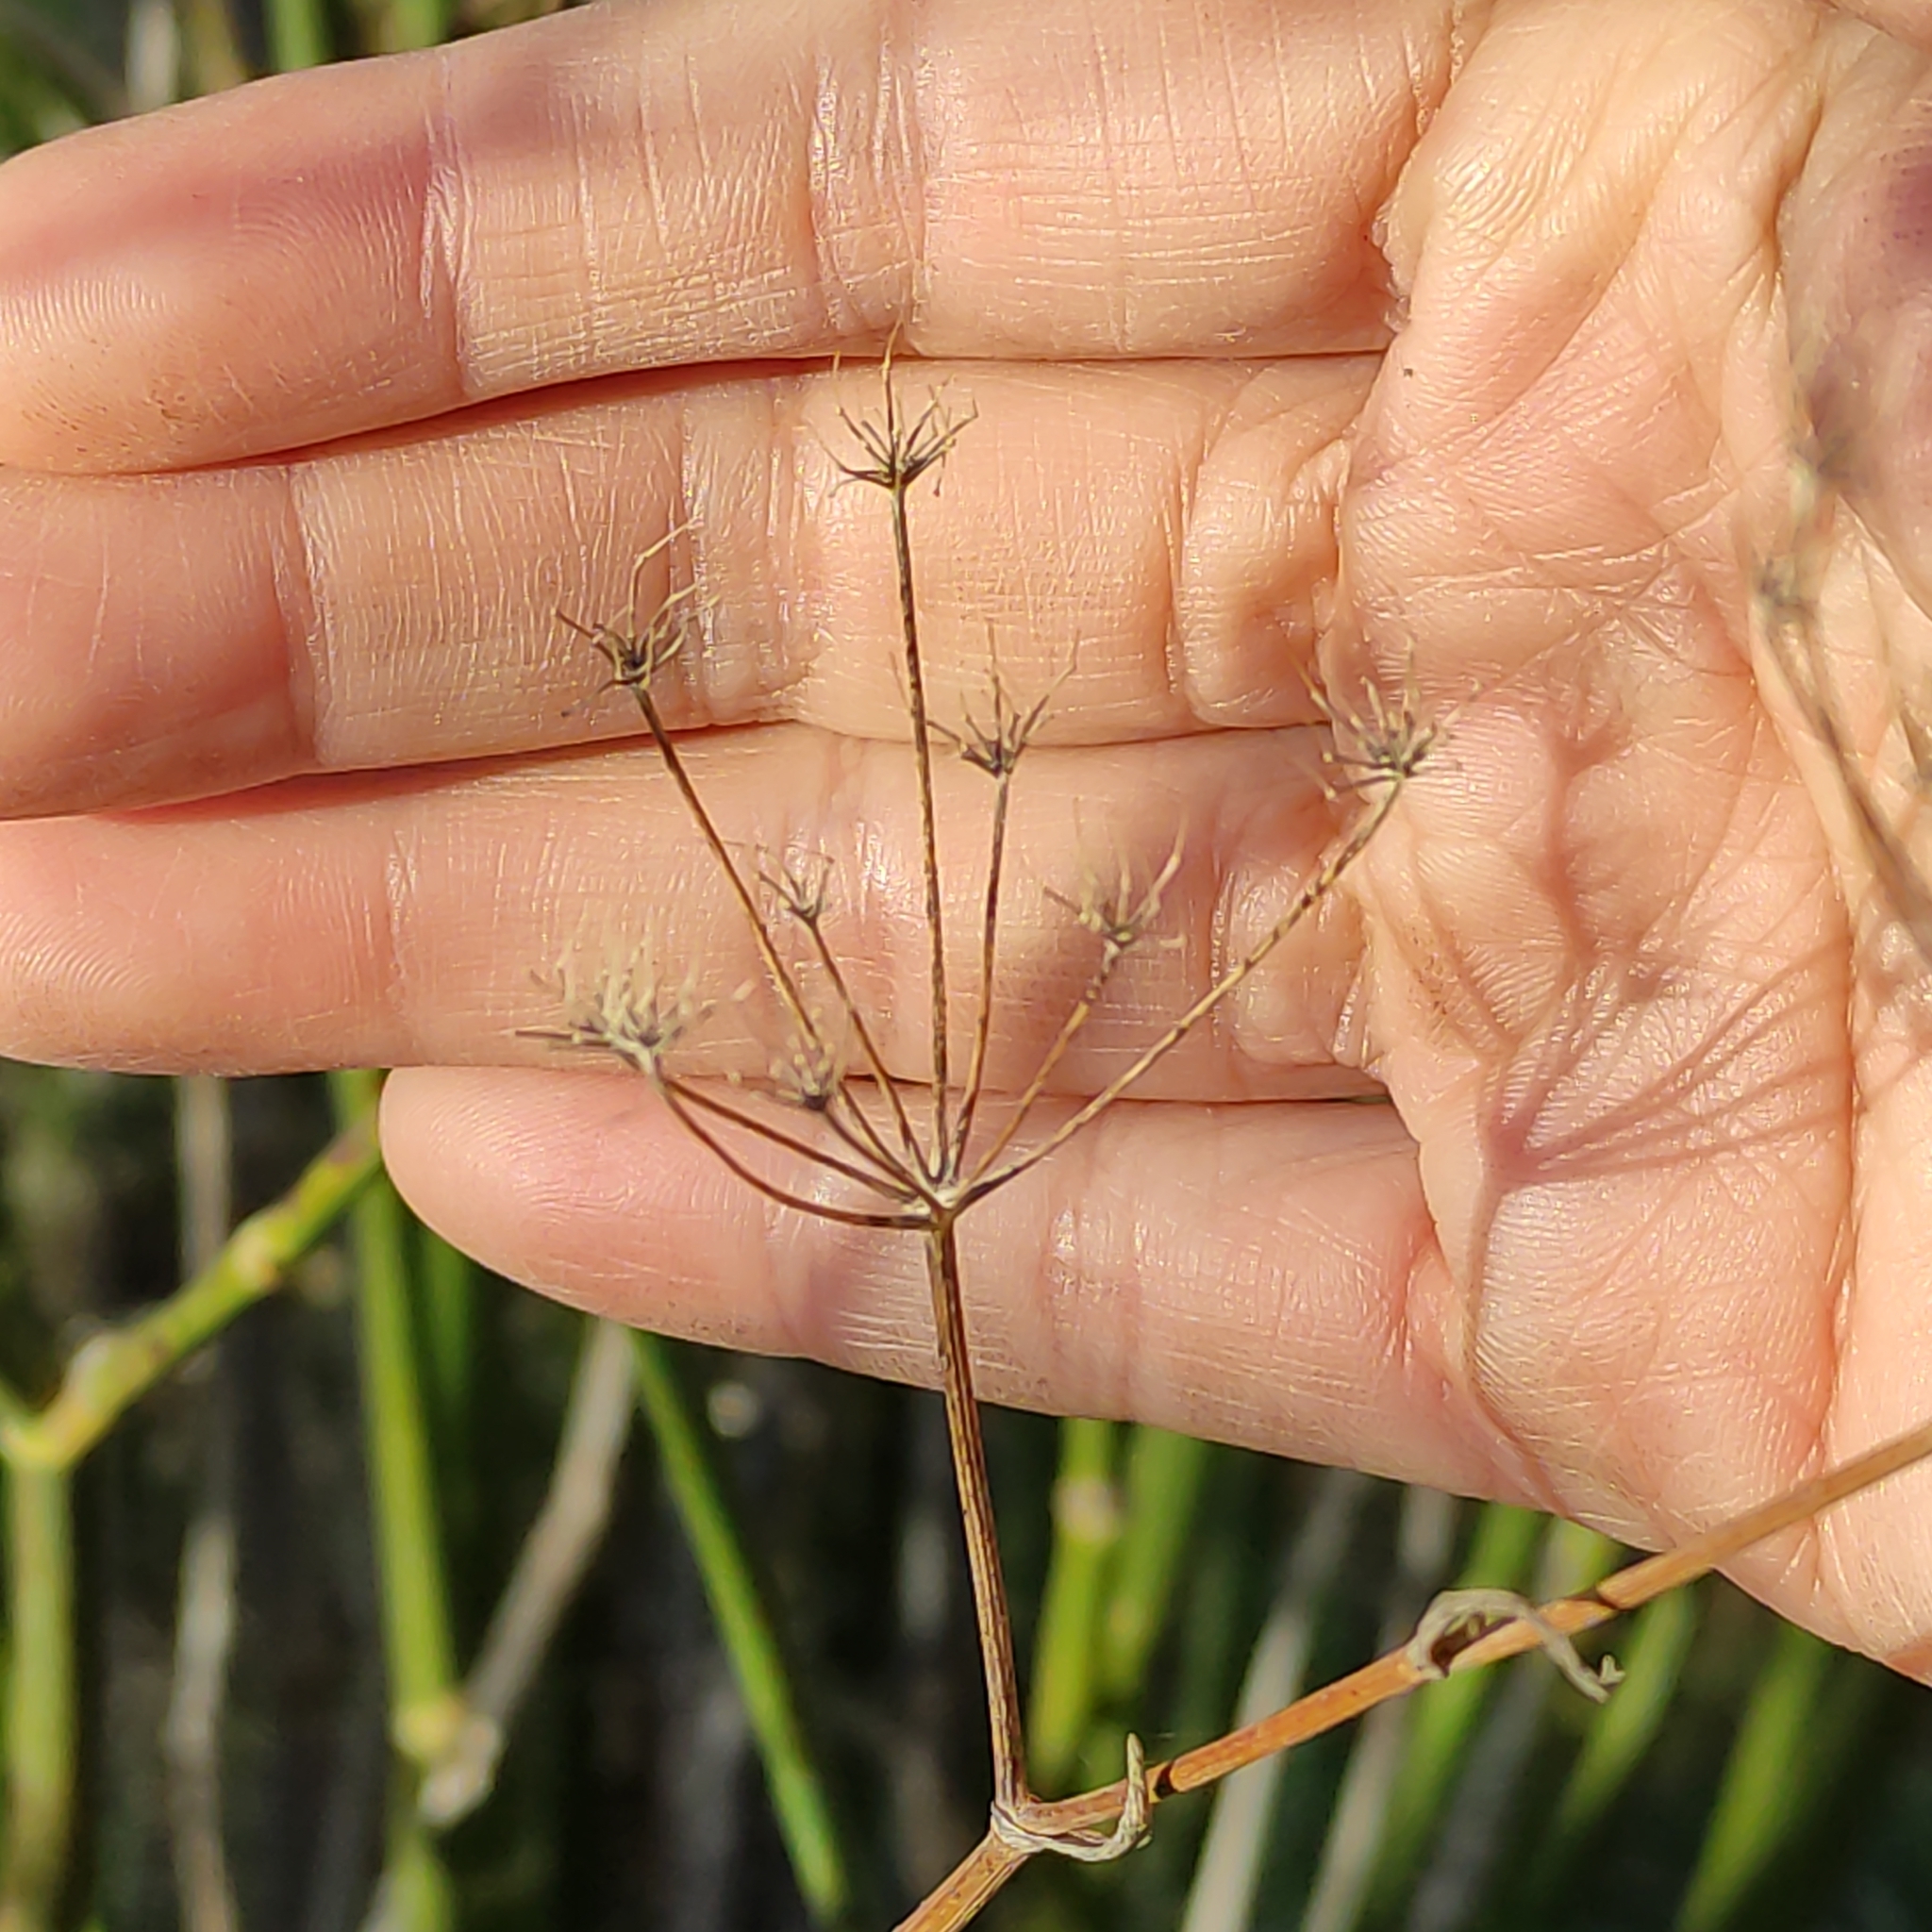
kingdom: Plantae
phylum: Tracheophyta
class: Magnoliopsida
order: Apiales
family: Apiaceae
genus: Foeniculum
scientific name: Foeniculum vulgare
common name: Fennel
